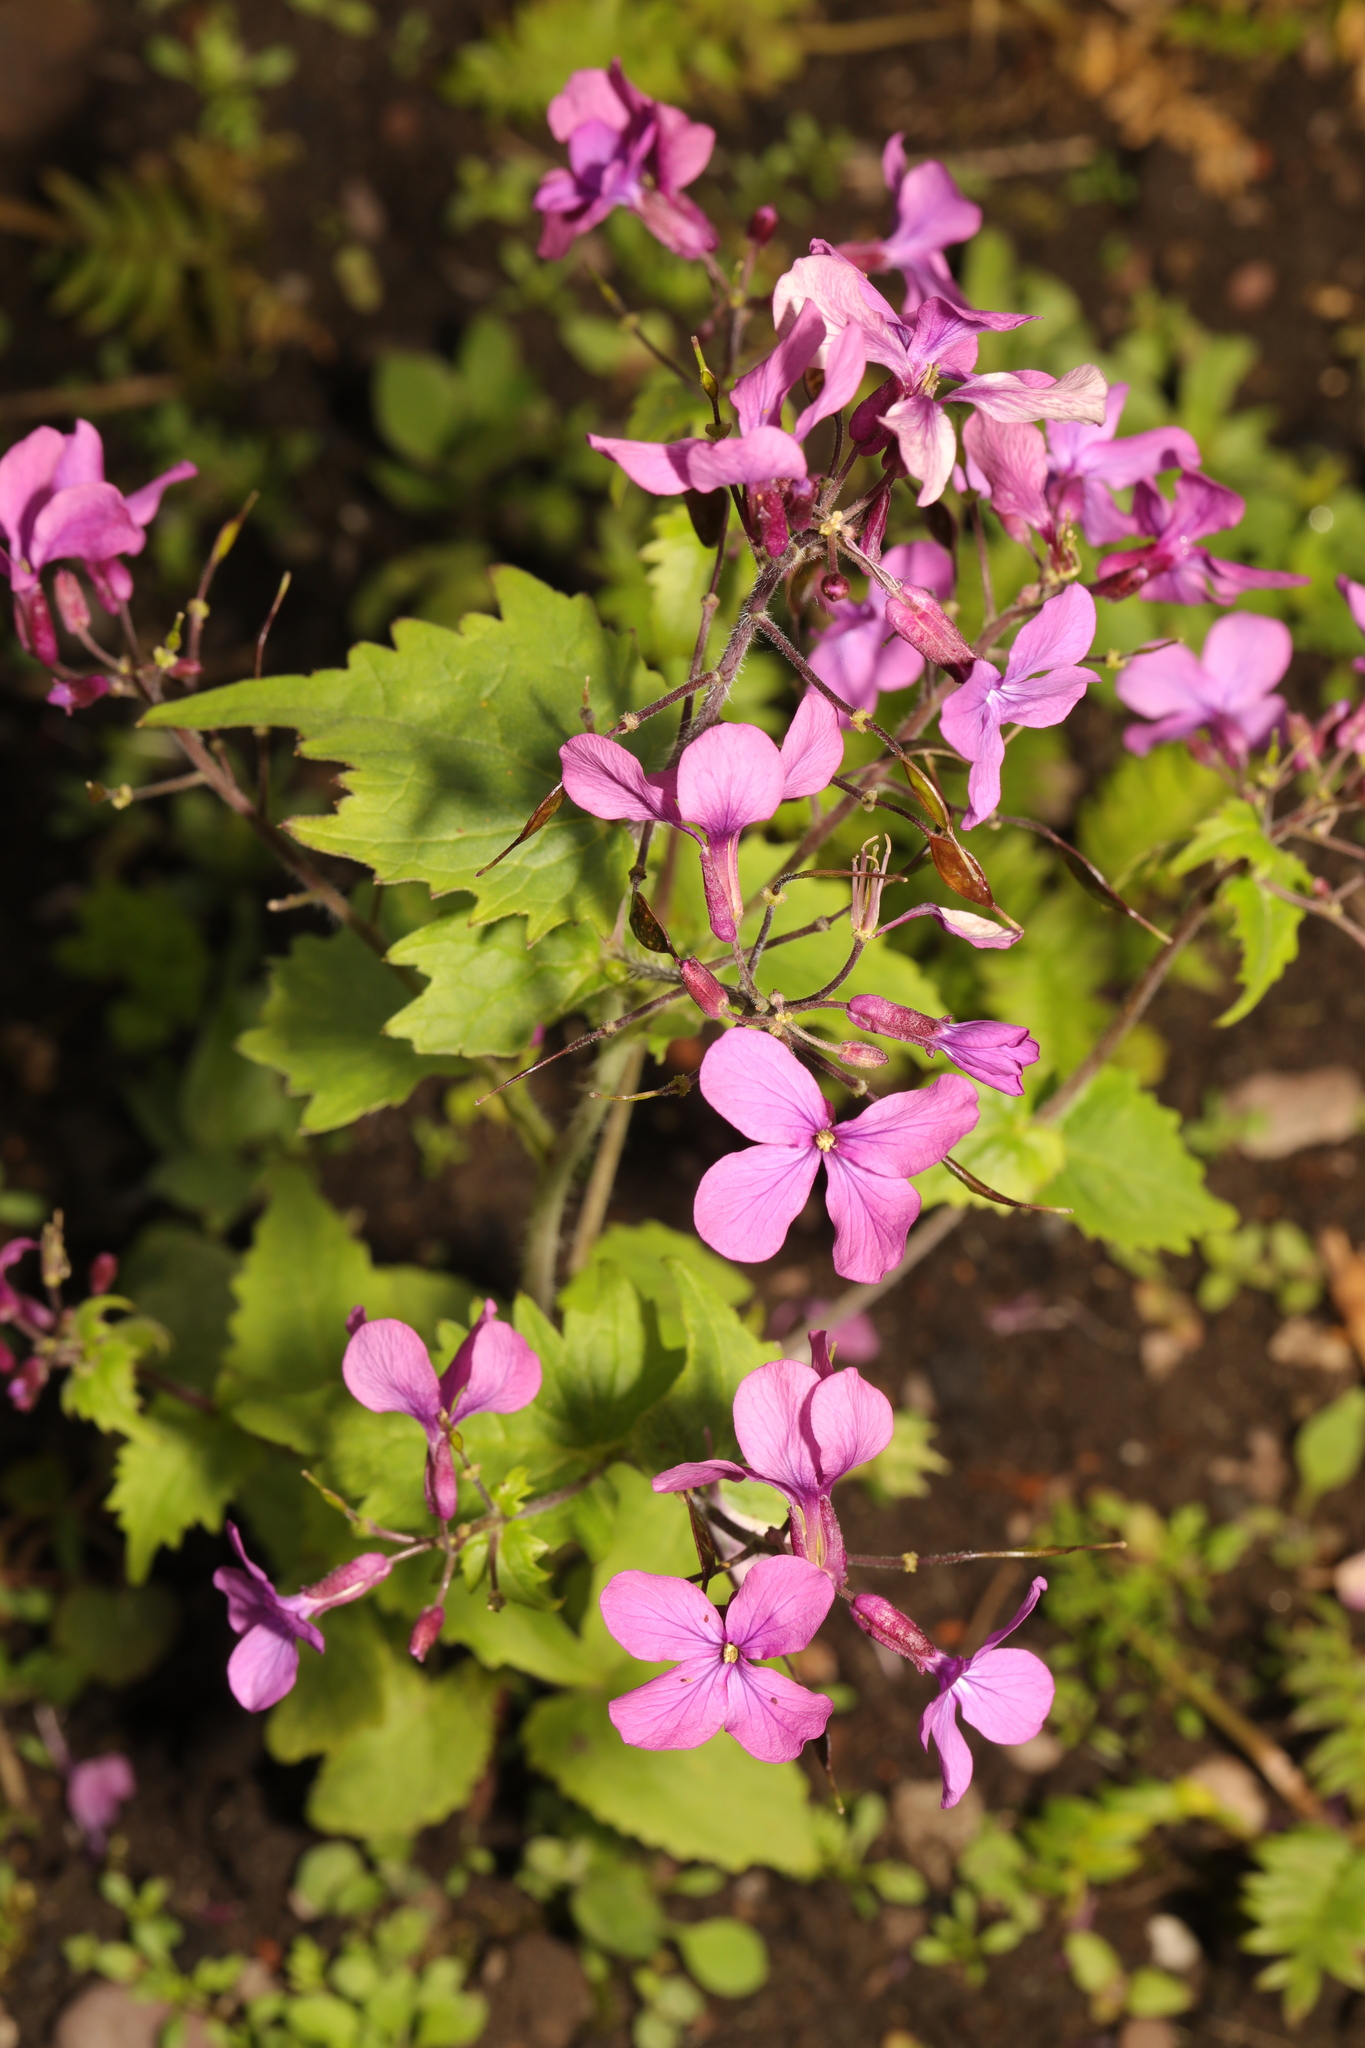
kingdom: Plantae
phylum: Tracheophyta
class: Magnoliopsida
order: Brassicales
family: Brassicaceae
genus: Lunaria
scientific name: Lunaria annua
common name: Honesty
